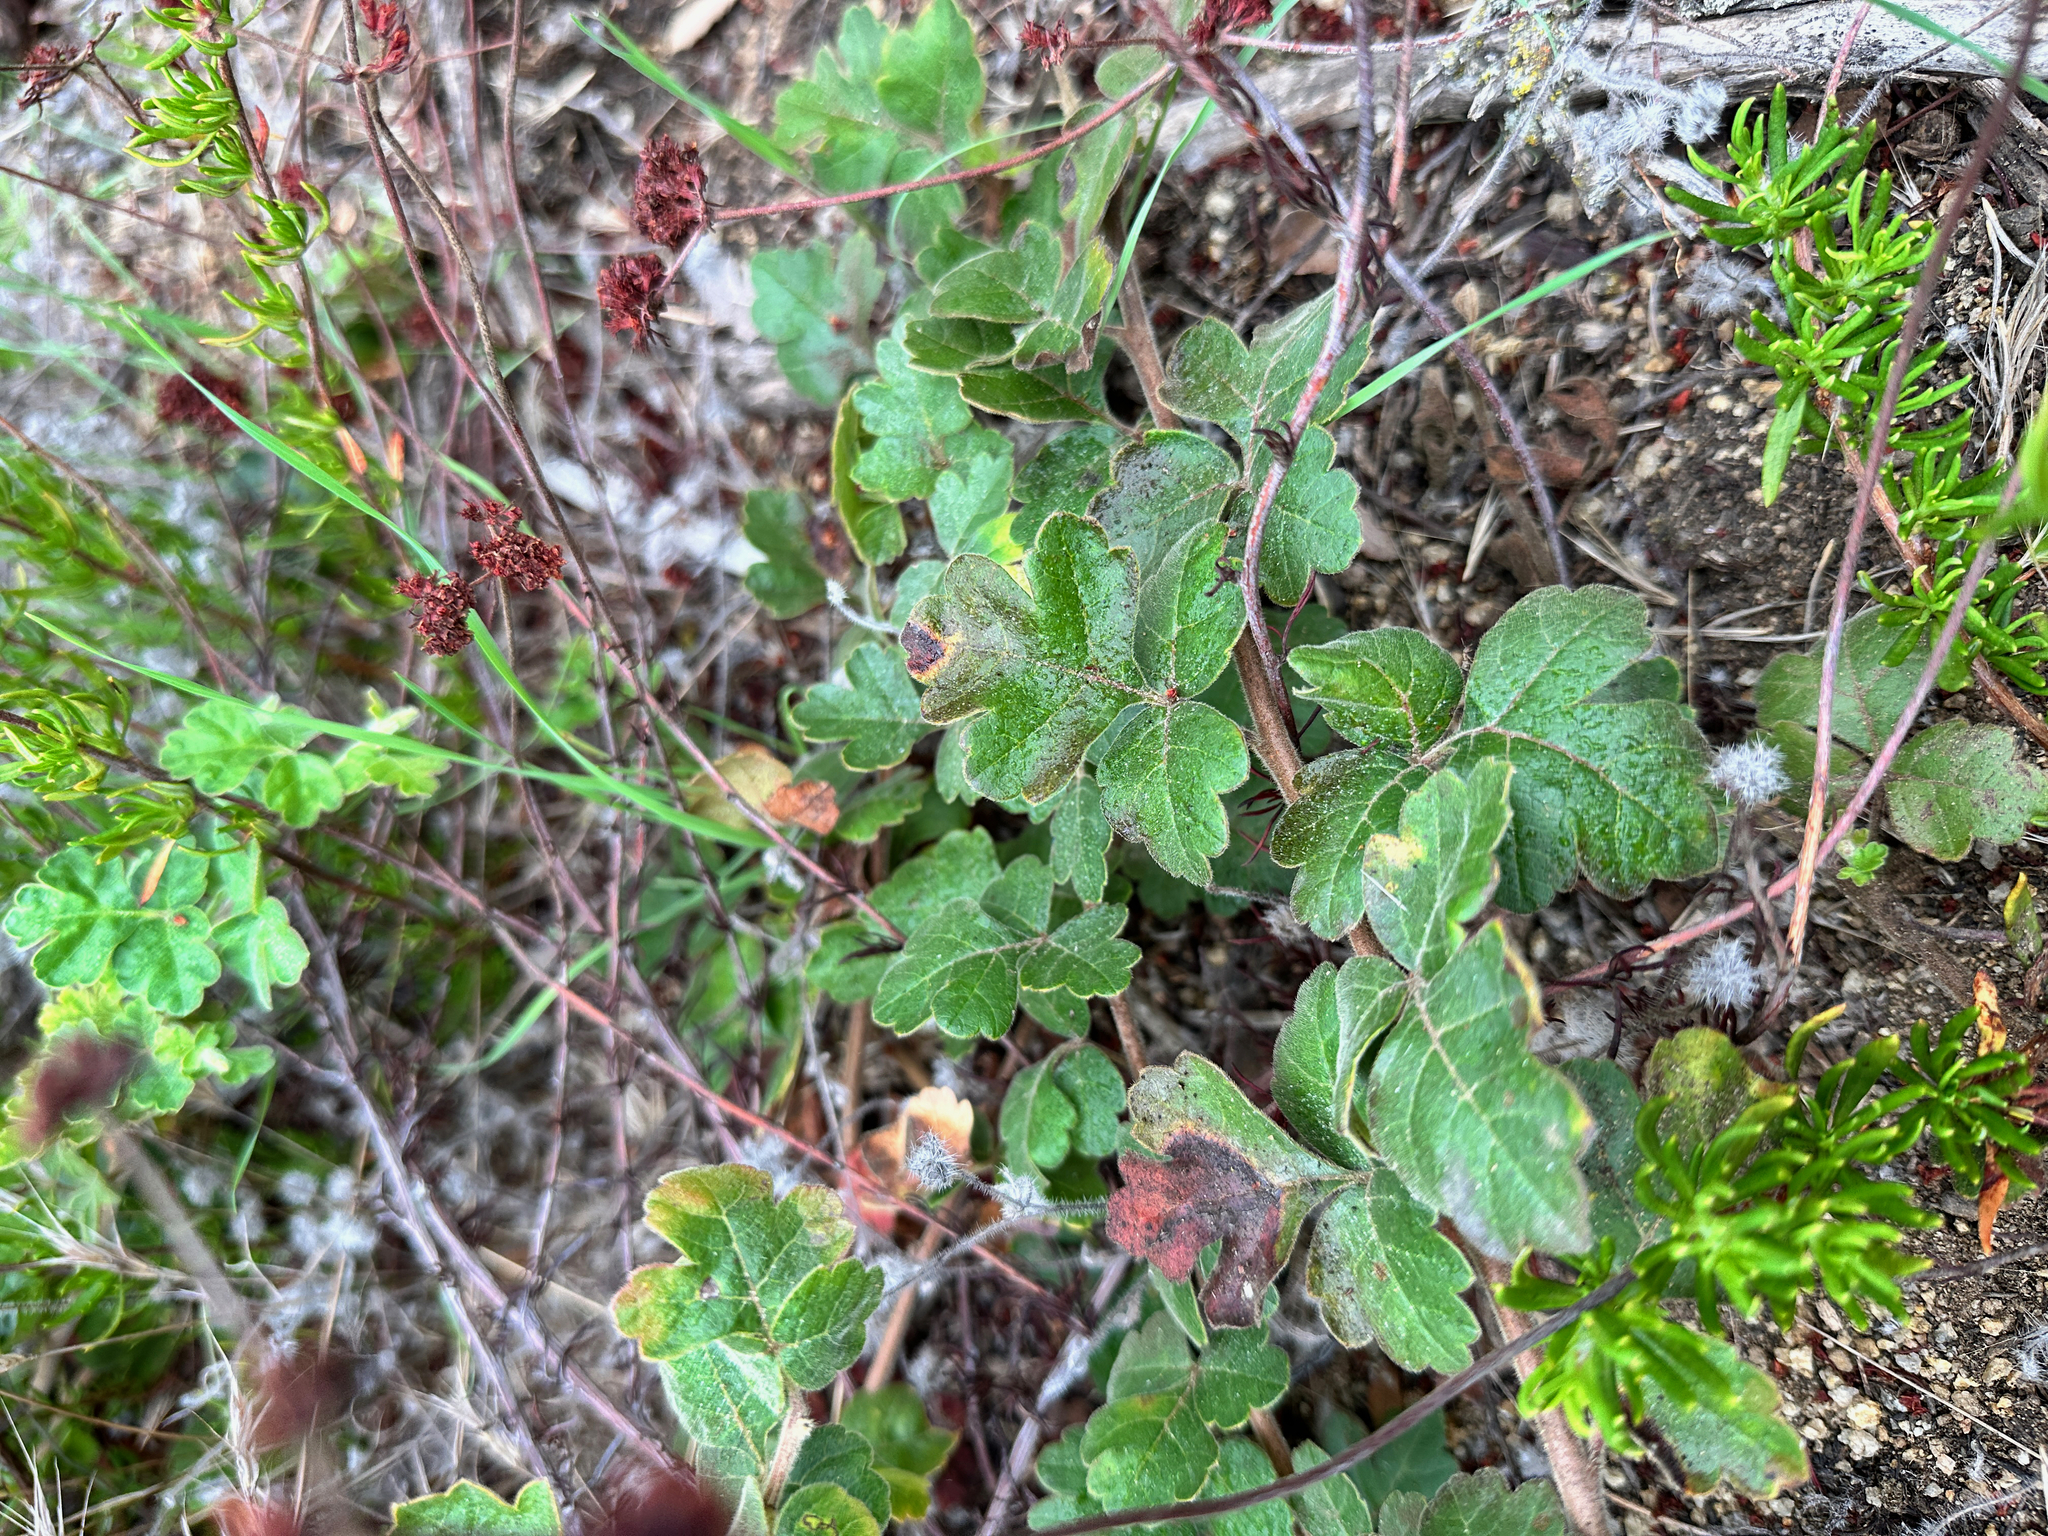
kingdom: Plantae
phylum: Tracheophyta
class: Magnoliopsida
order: Sapindales
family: Anacardiaceae
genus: Rhus
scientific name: Rhus aromatica
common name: Aromatic sumac
